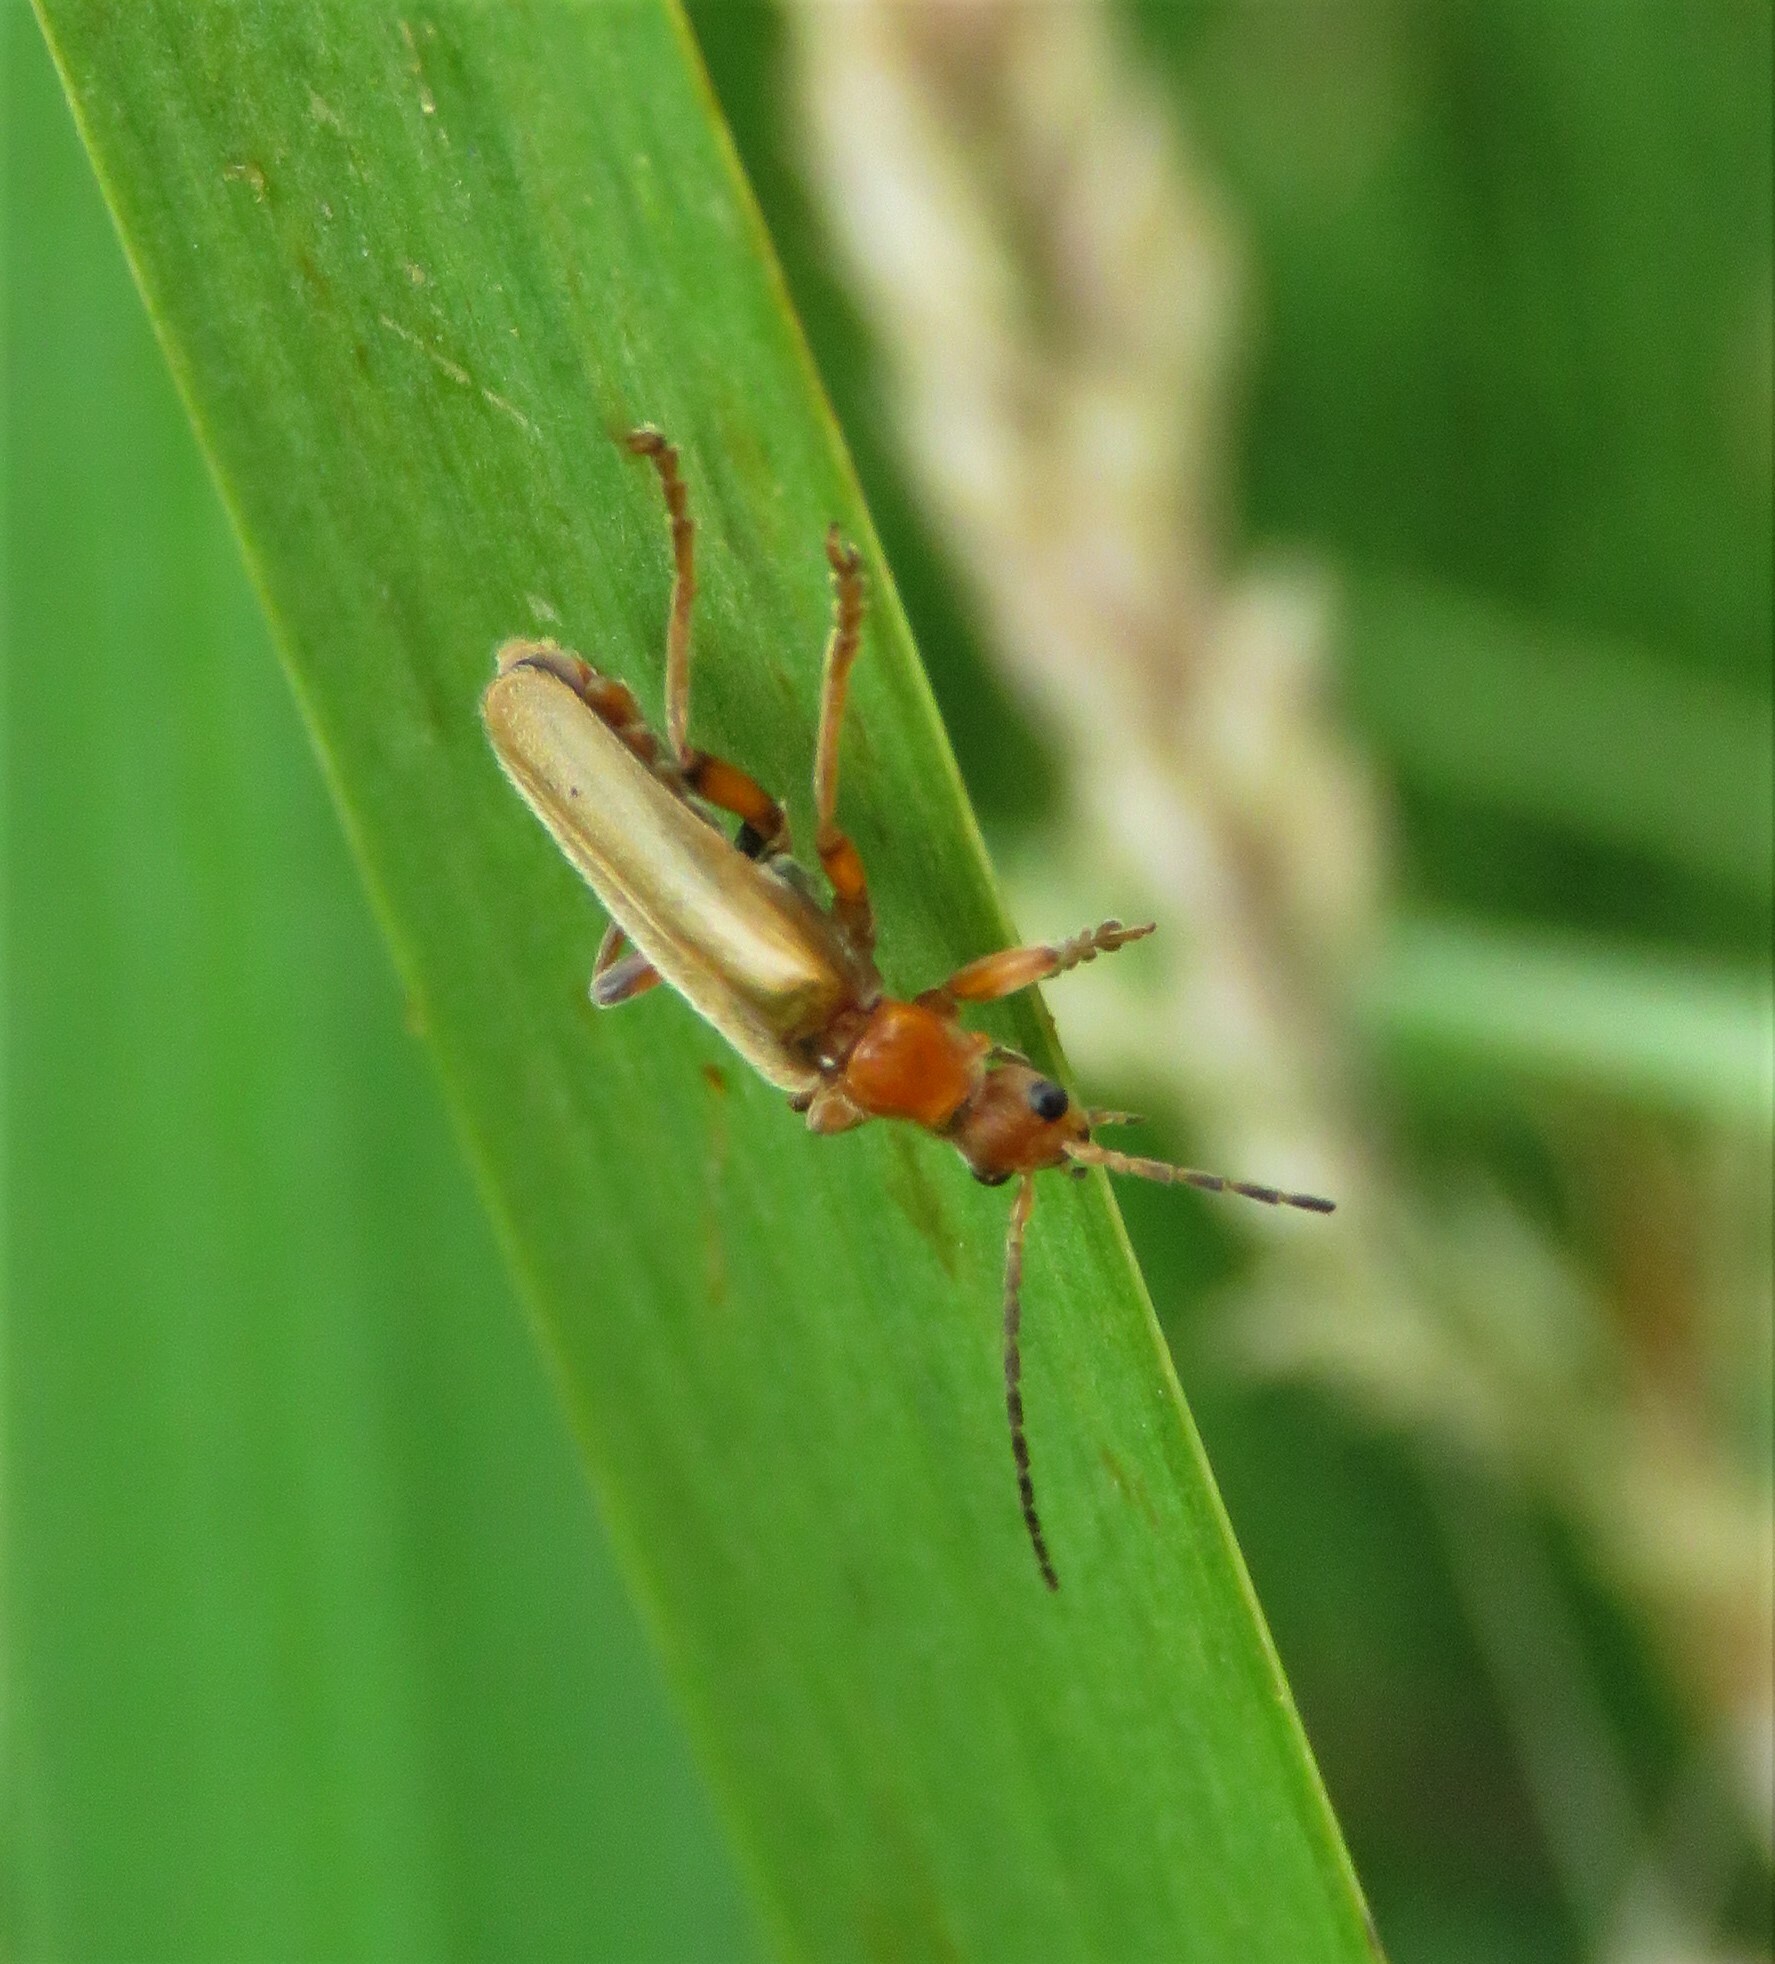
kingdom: Animalia
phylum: Arthropoda
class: Insecta
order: Coleoptera
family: Cantharidae
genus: Cantharis
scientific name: Cantharis pallida
